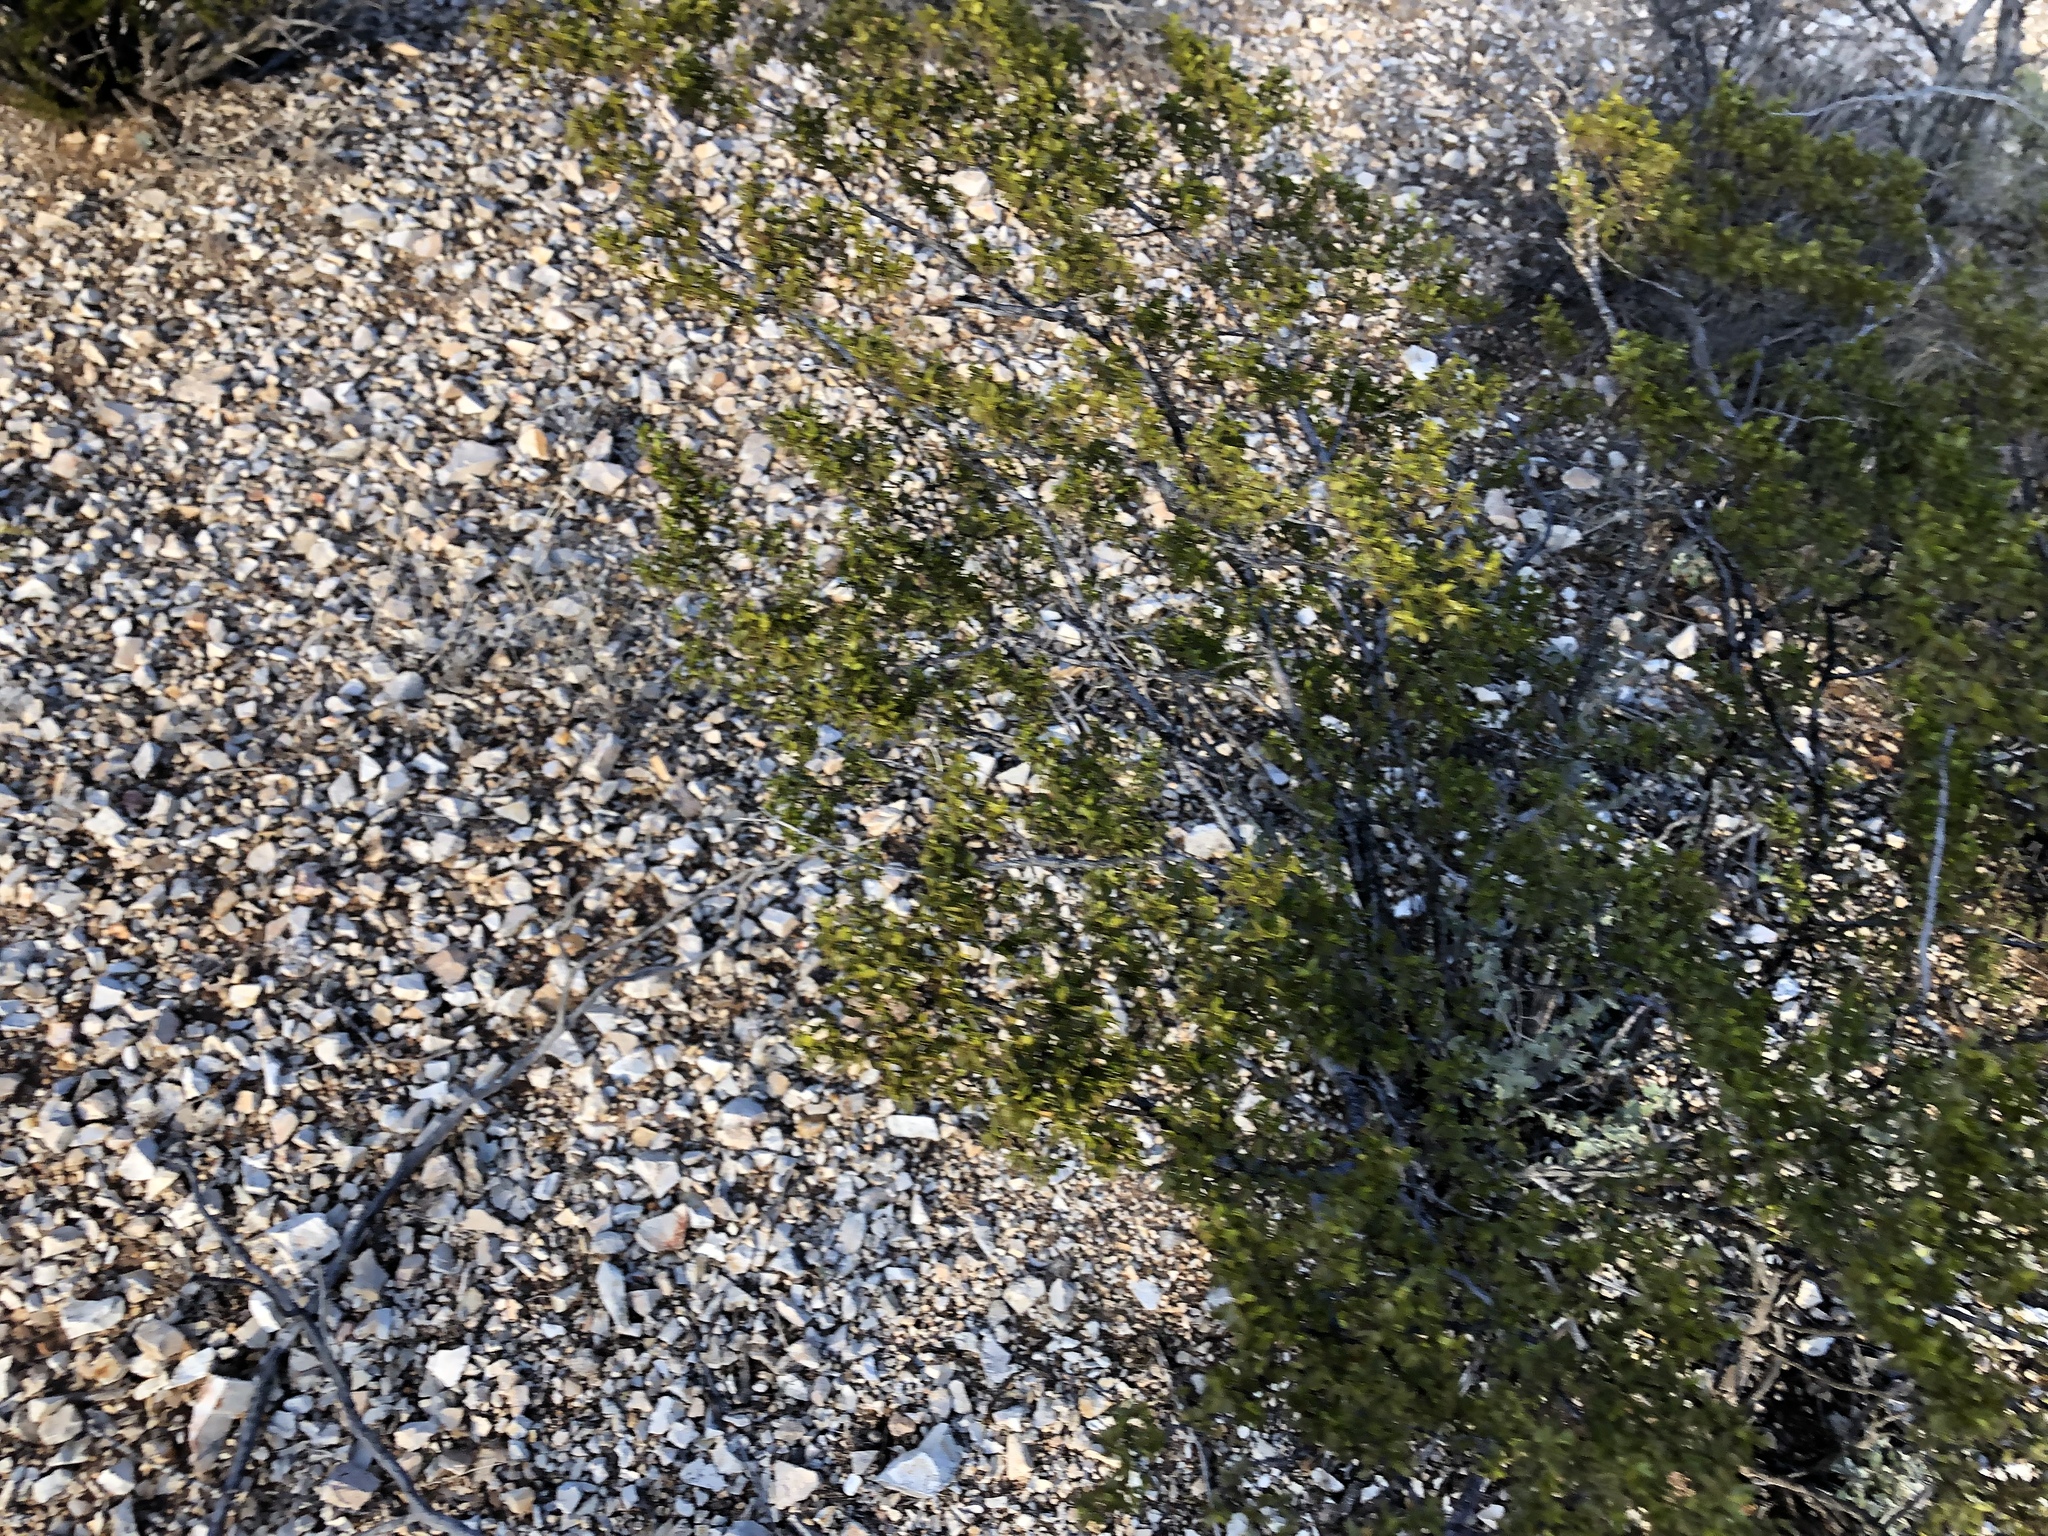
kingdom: Plantae
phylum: Tracheophyta
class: Magnoliopsida
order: Zygophyllales
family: Zygophyllaceae
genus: Larrea
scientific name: Larrea tridentata
